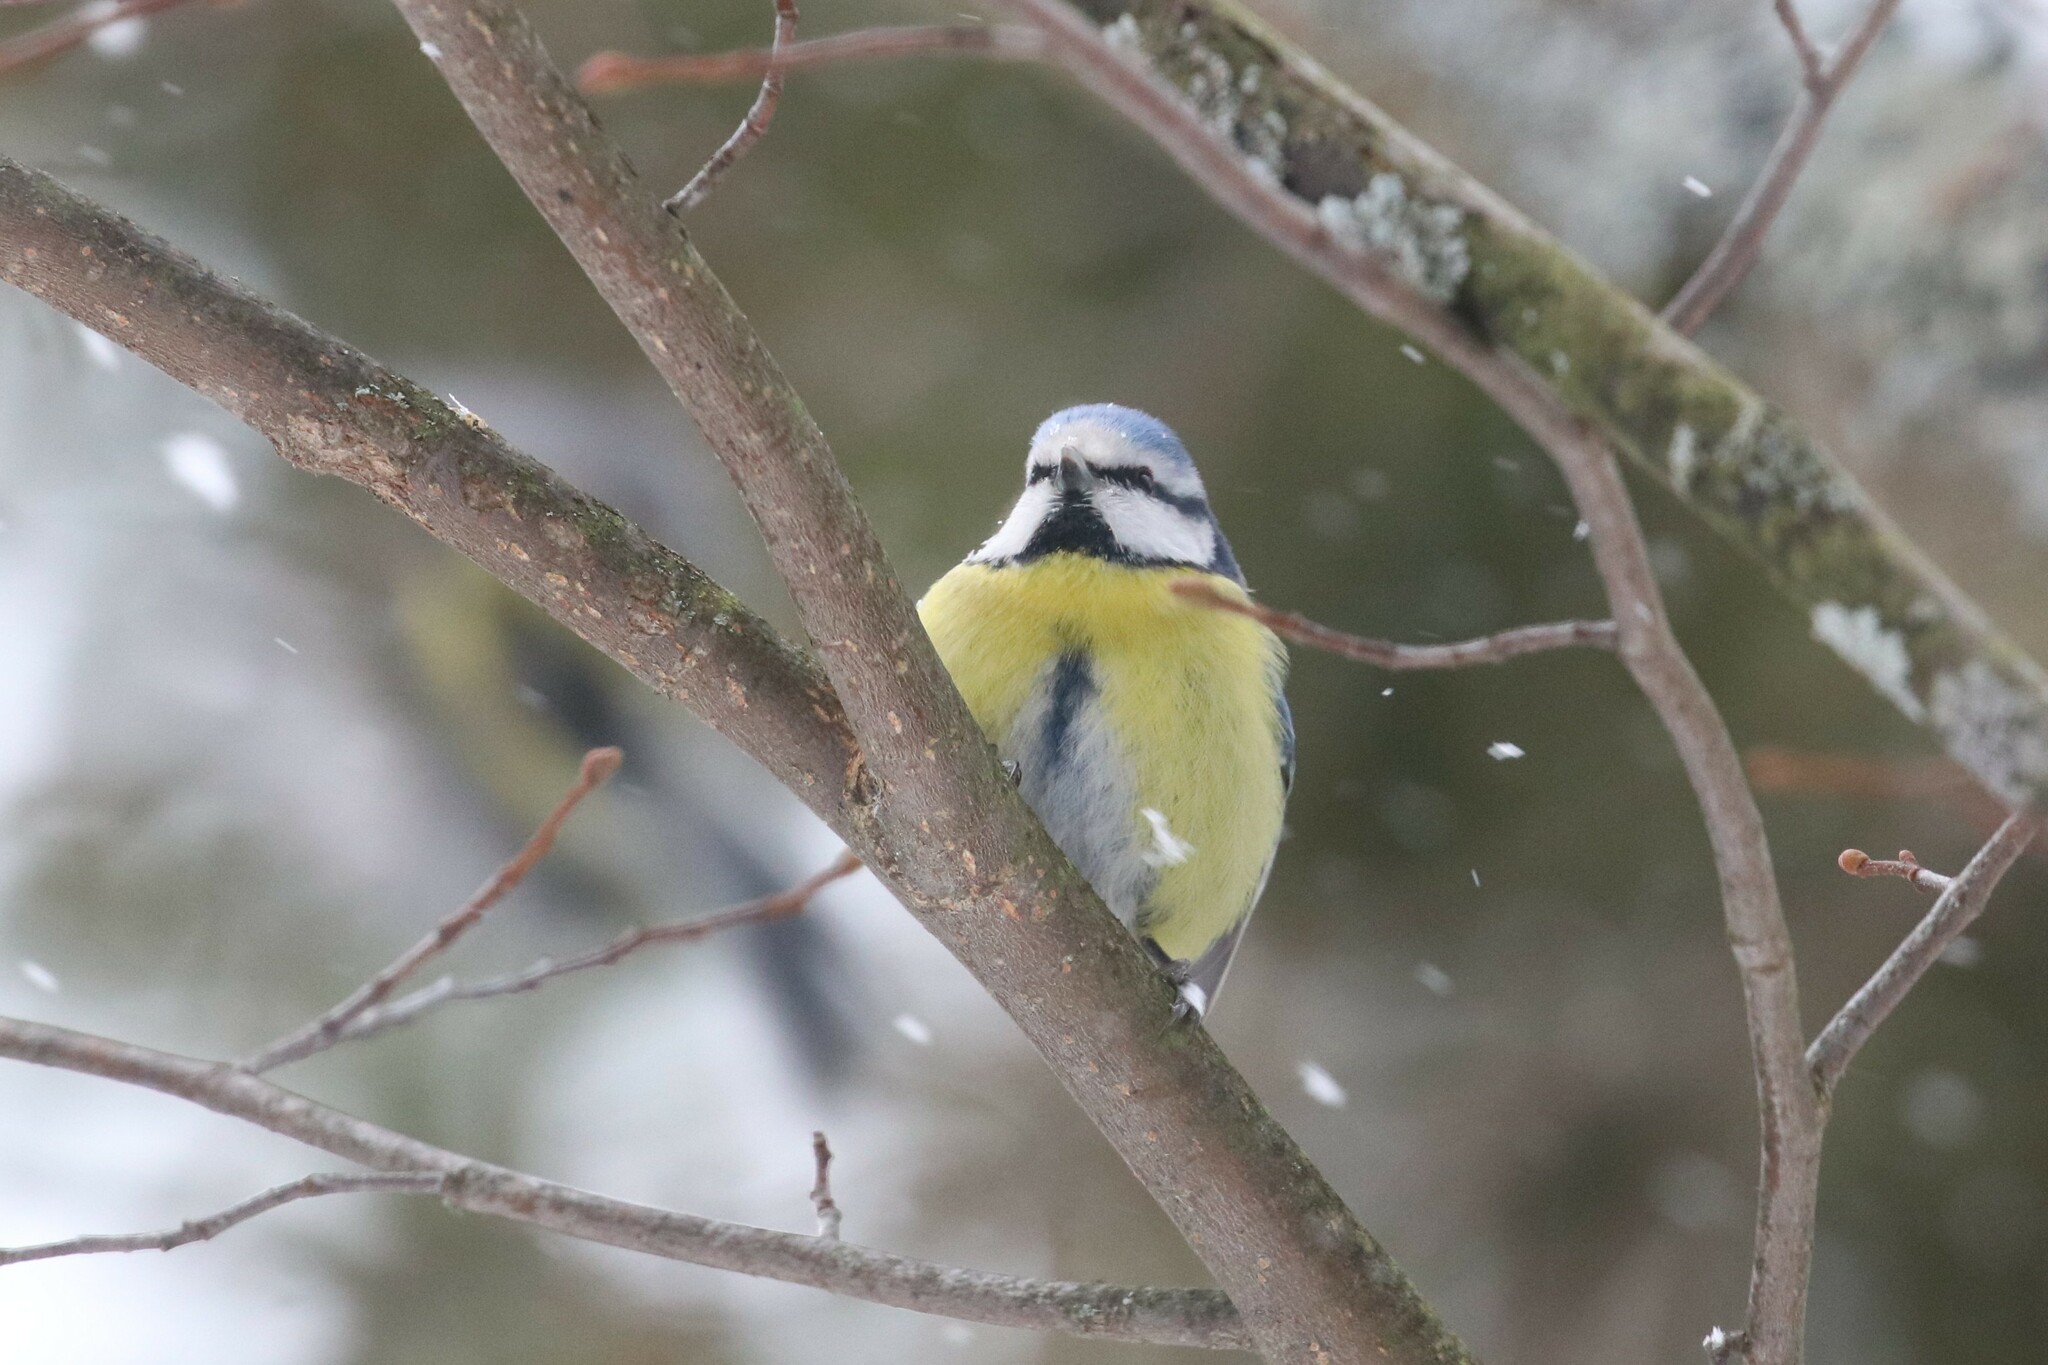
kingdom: Animalia
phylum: Chordata
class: Aves
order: Passeriformes
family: Paridae
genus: Cyanistes
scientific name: Cyanistes caeruleus
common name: Eurasian blue tit
